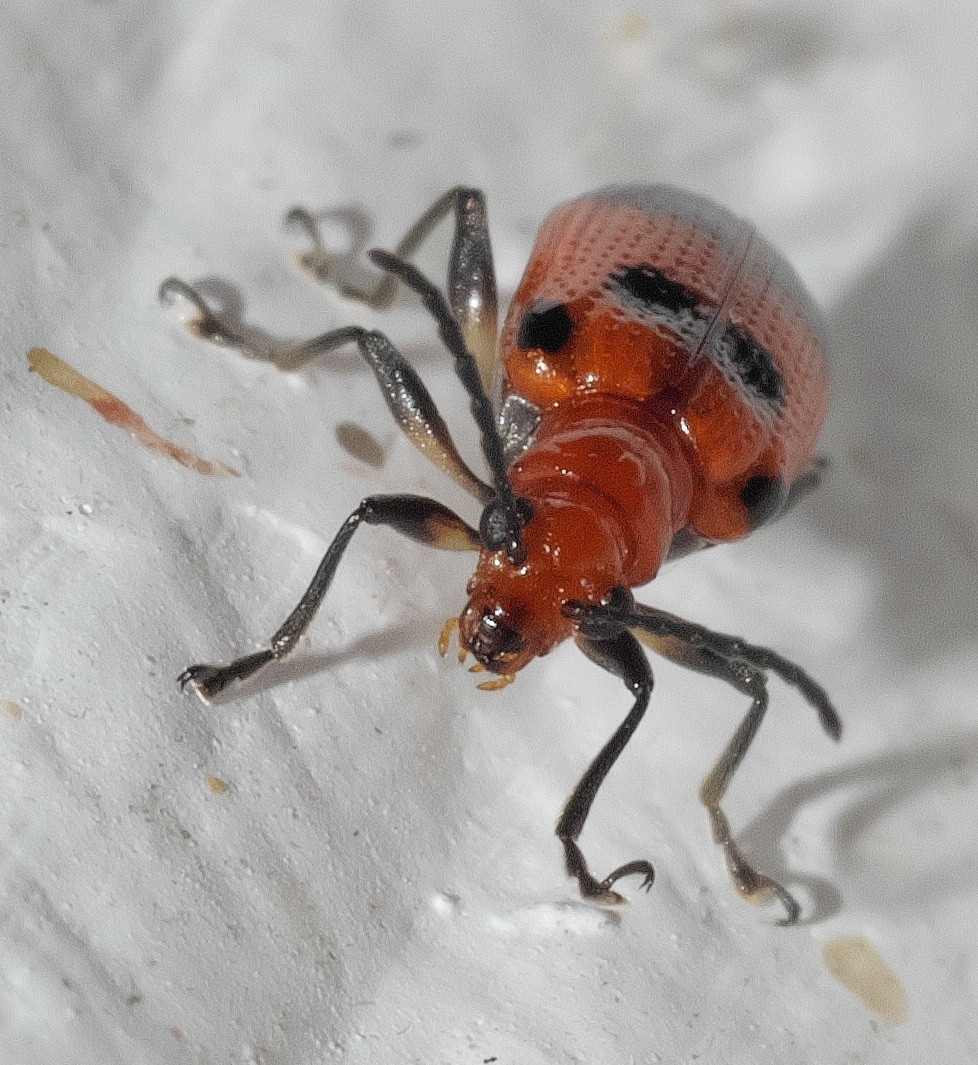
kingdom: Animalia
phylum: Arthropoda
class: Insecta
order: Coleoptera
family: Chrysomelidae
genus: Neolema
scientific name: Neolema sexpunctata
